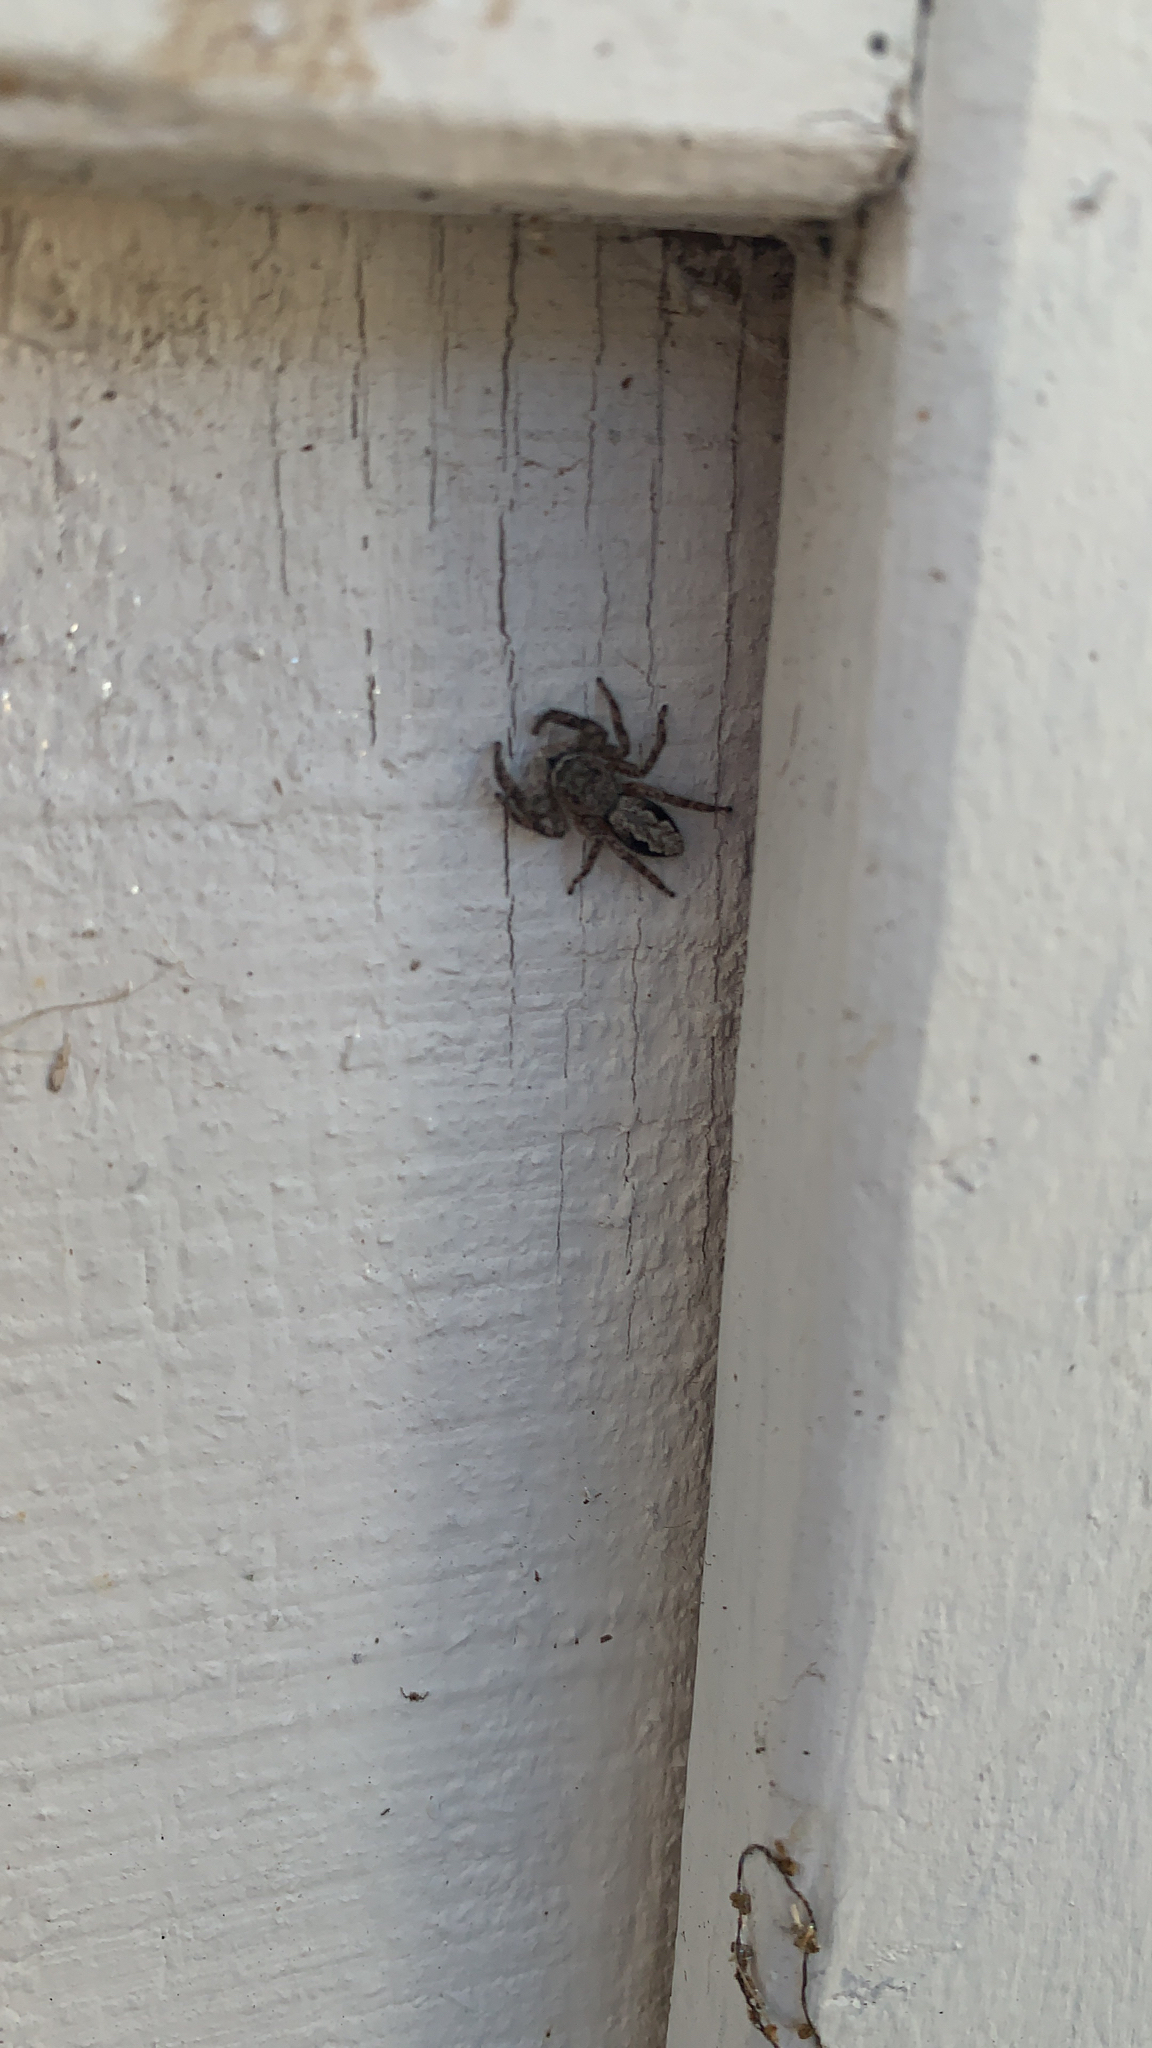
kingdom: Animalia
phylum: Arthropoda
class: Arachnida
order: Araneae
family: Salticidae
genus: Platycryptus
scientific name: Platycryptus undatus
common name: Tan jumping spider
